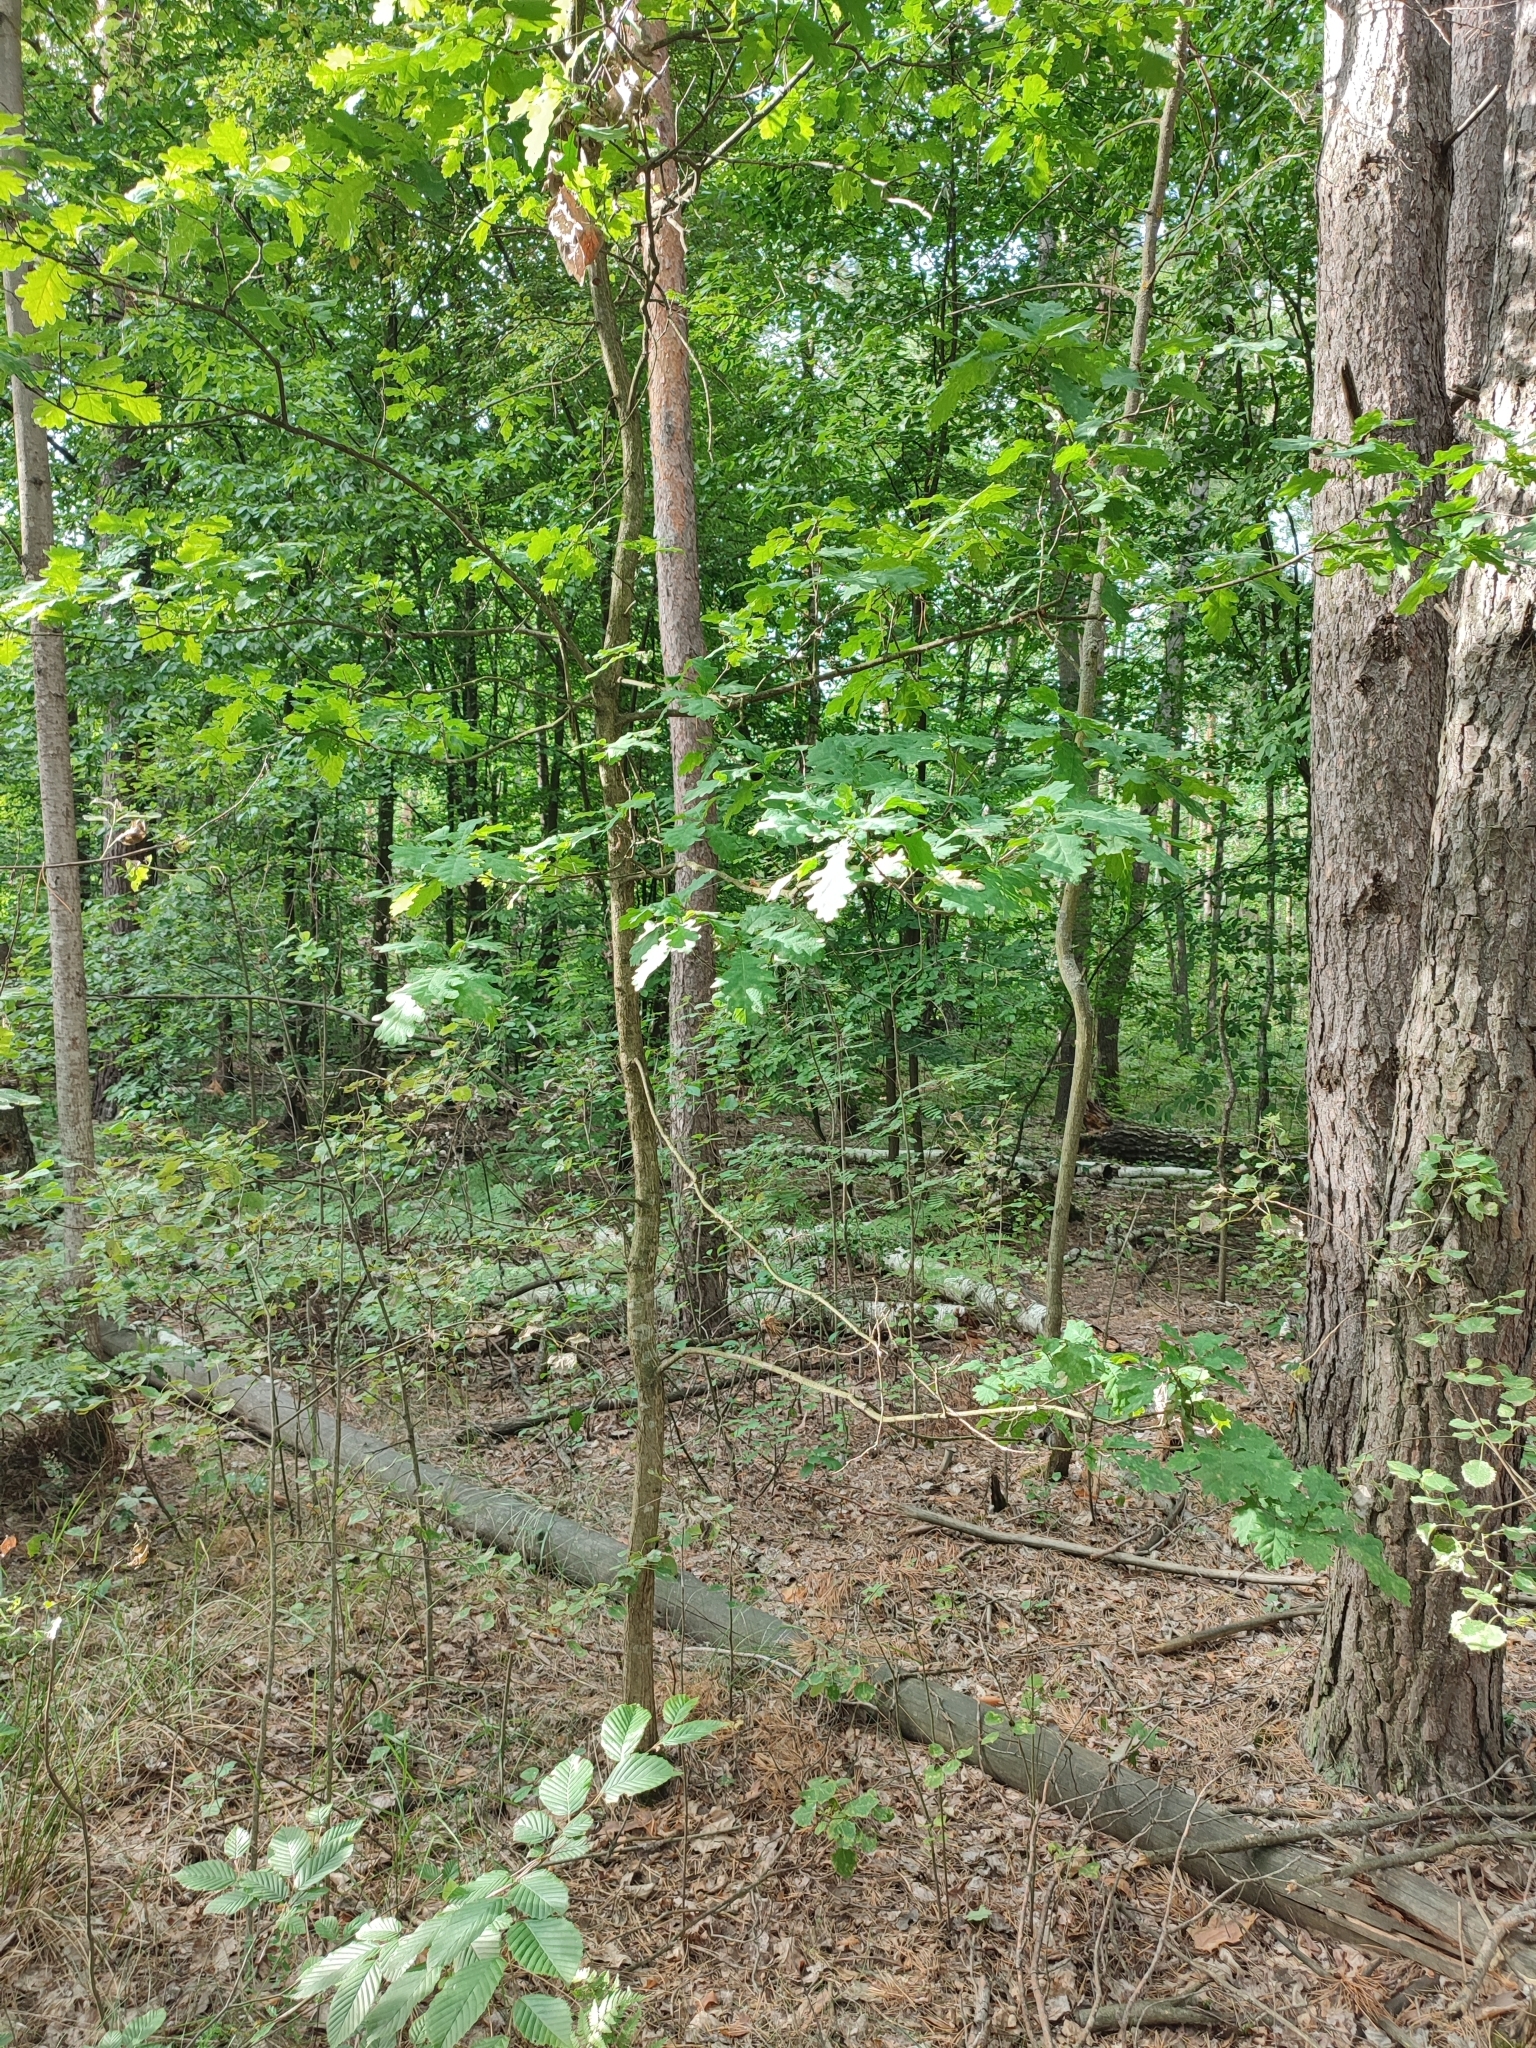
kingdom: Plantae
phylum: Tracheophyta
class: Magnoliopsida
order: Fagales
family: Fagaceae
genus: Quercus
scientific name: Quercus robur
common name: Pedunculate oak
